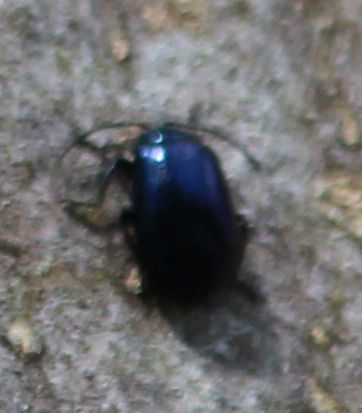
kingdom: Animalia
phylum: Arthropoda
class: Insecta
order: Coleoptera
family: Chrysomelidae
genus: Agelastica
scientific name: Agelastica alni
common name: Alder leaf beetle
